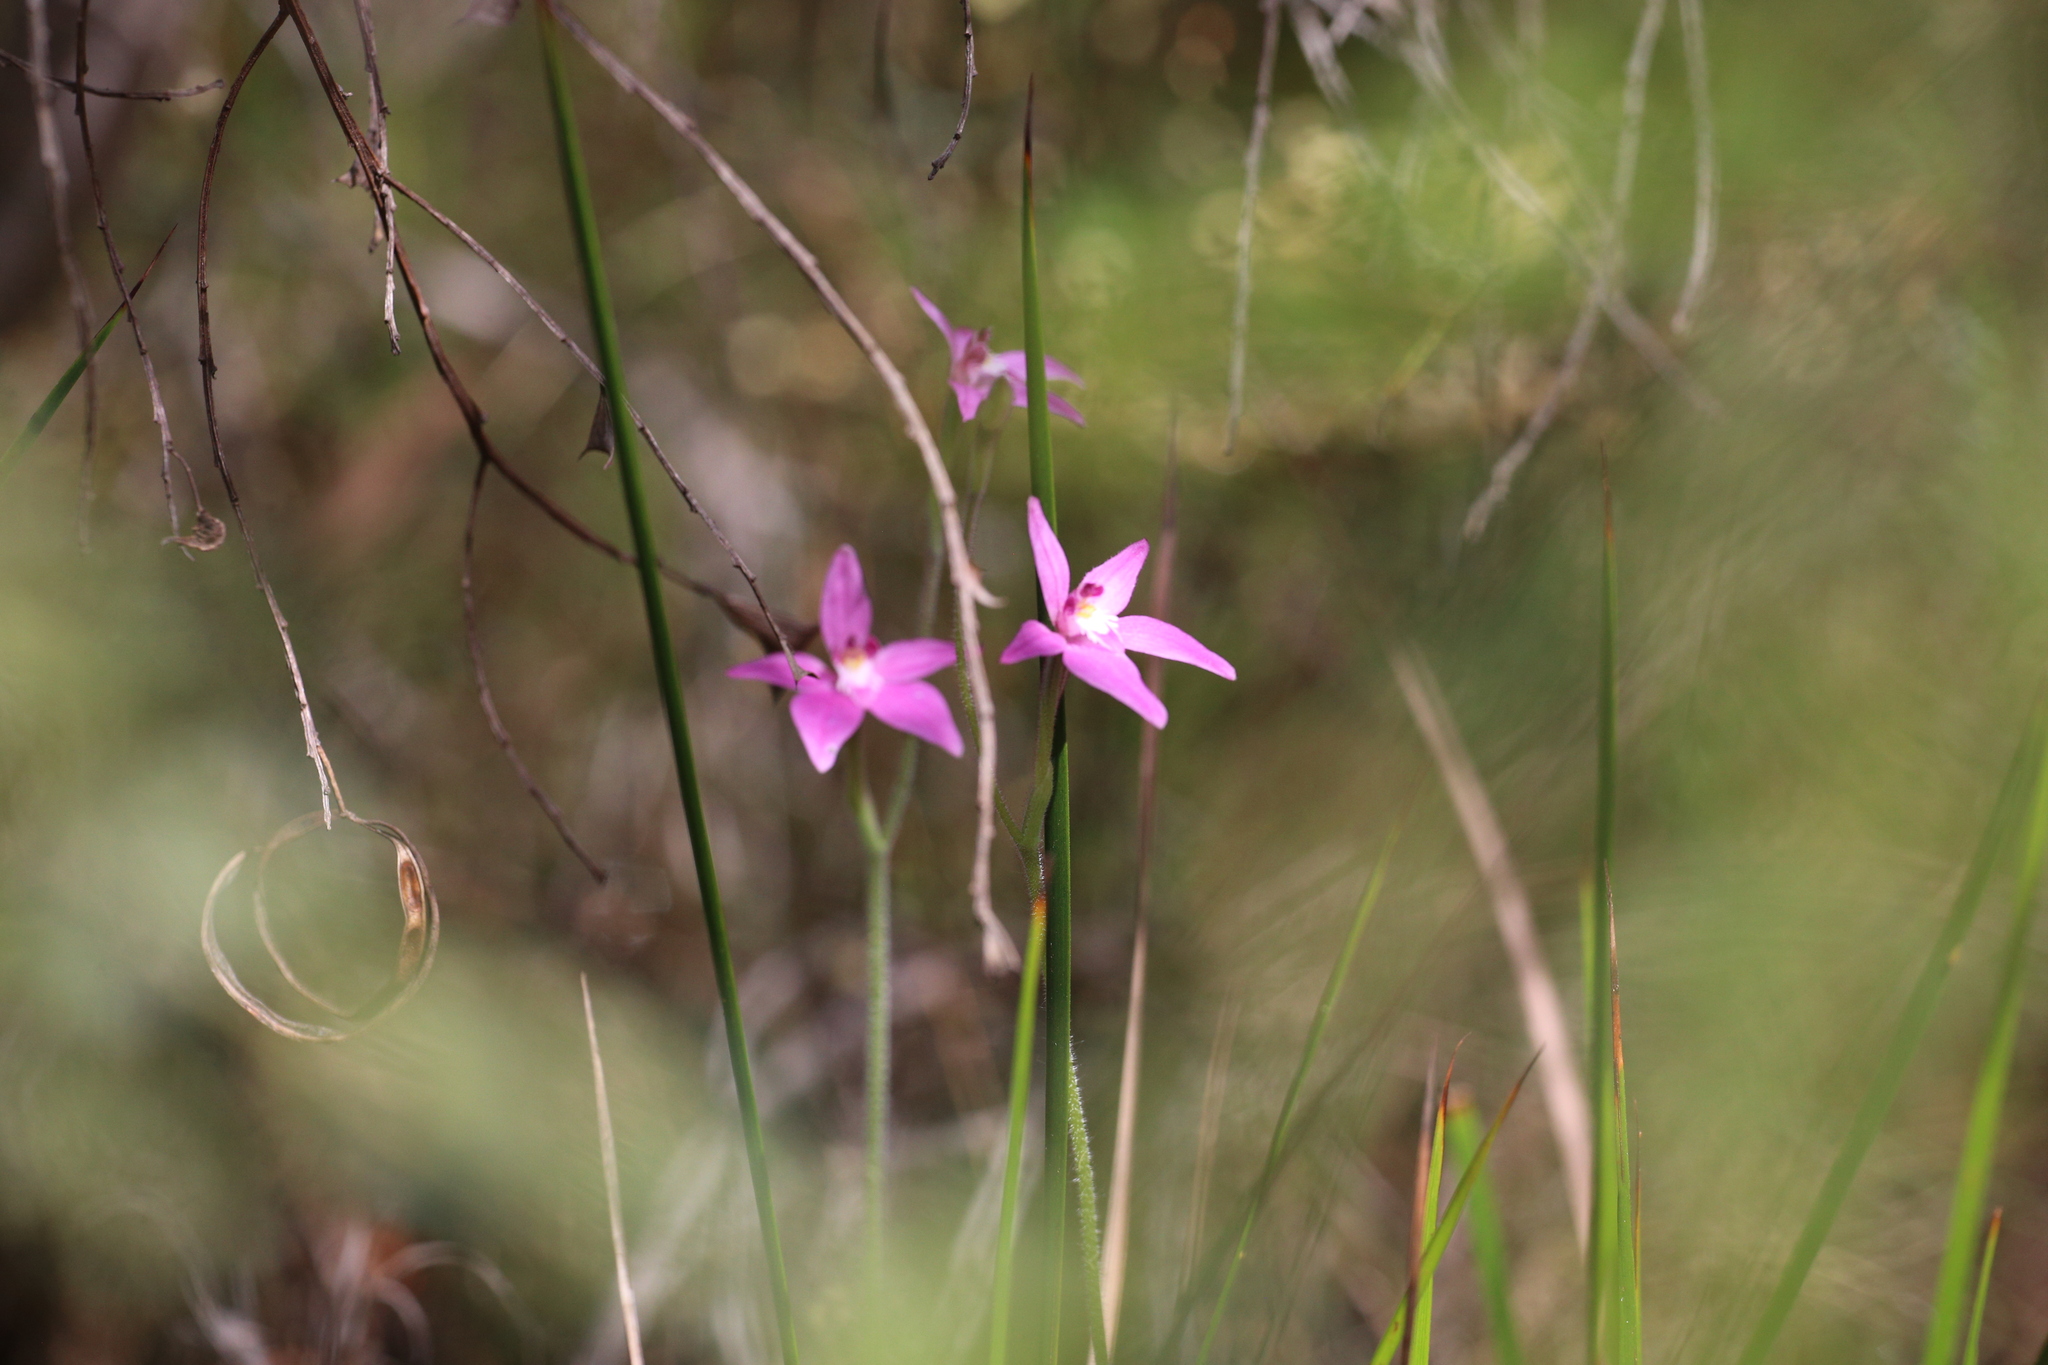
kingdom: Plantae
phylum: Tracheophyta
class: Liliopsida
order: Asparagales
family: Orchidaceae
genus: Caladenia
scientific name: Caladenia latifolia
